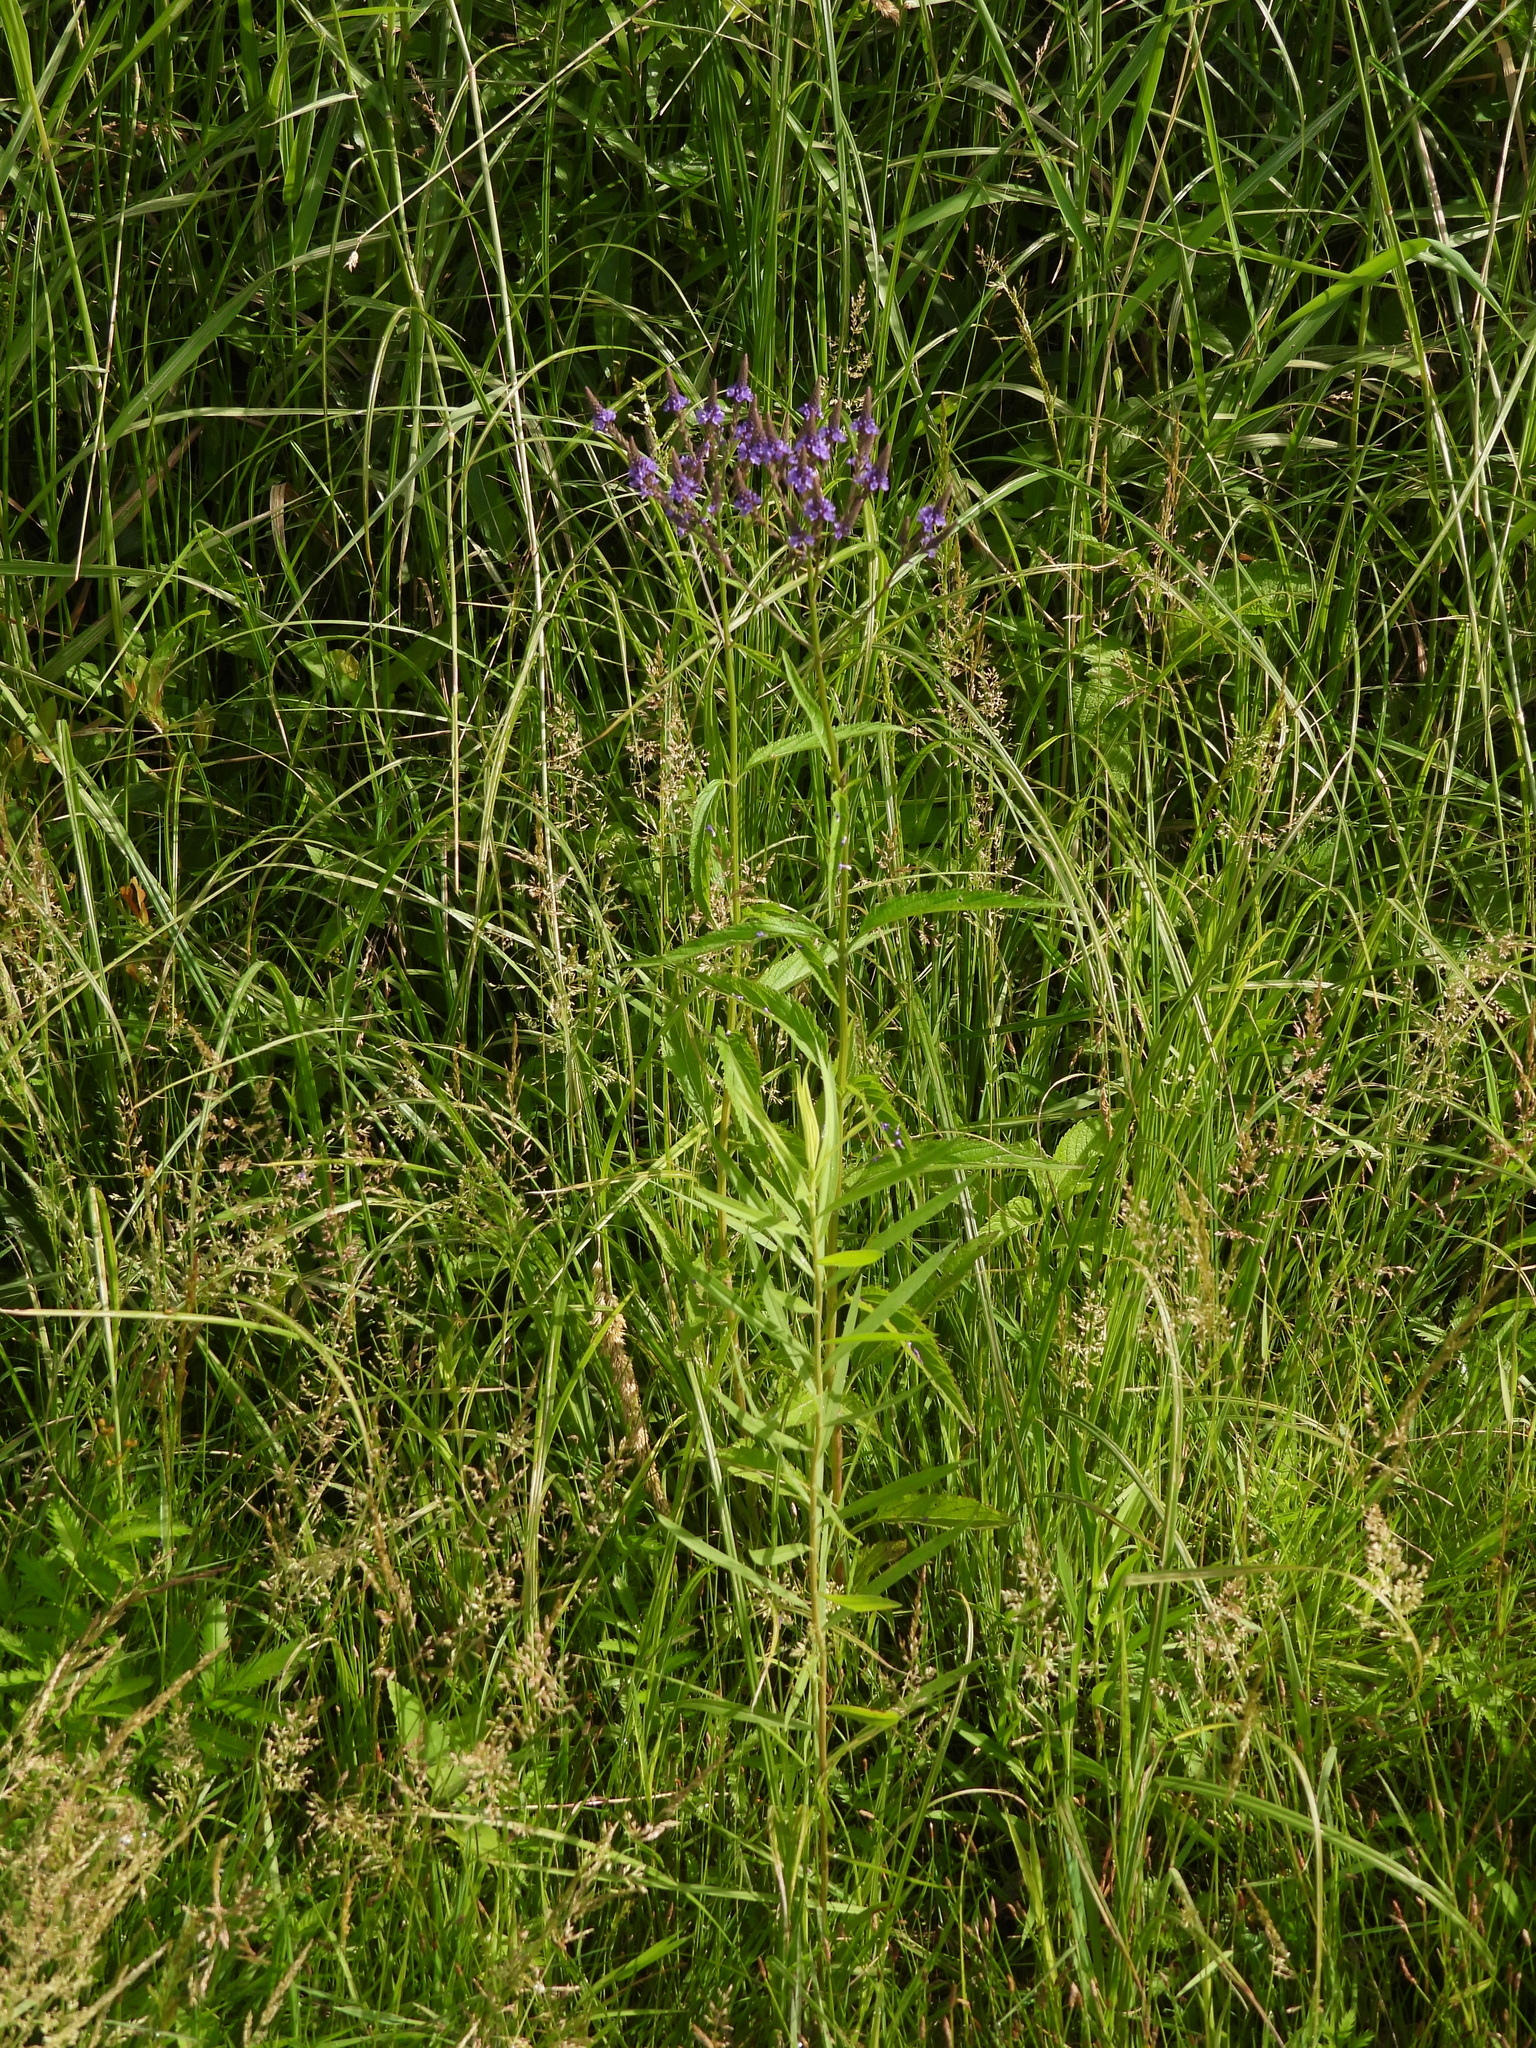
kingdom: Plantae
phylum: Tracheophyta
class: Magnoliopsida
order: Lamiales
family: Verbenaceae
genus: Verbena
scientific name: Verbena hastata
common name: American blue vervain
